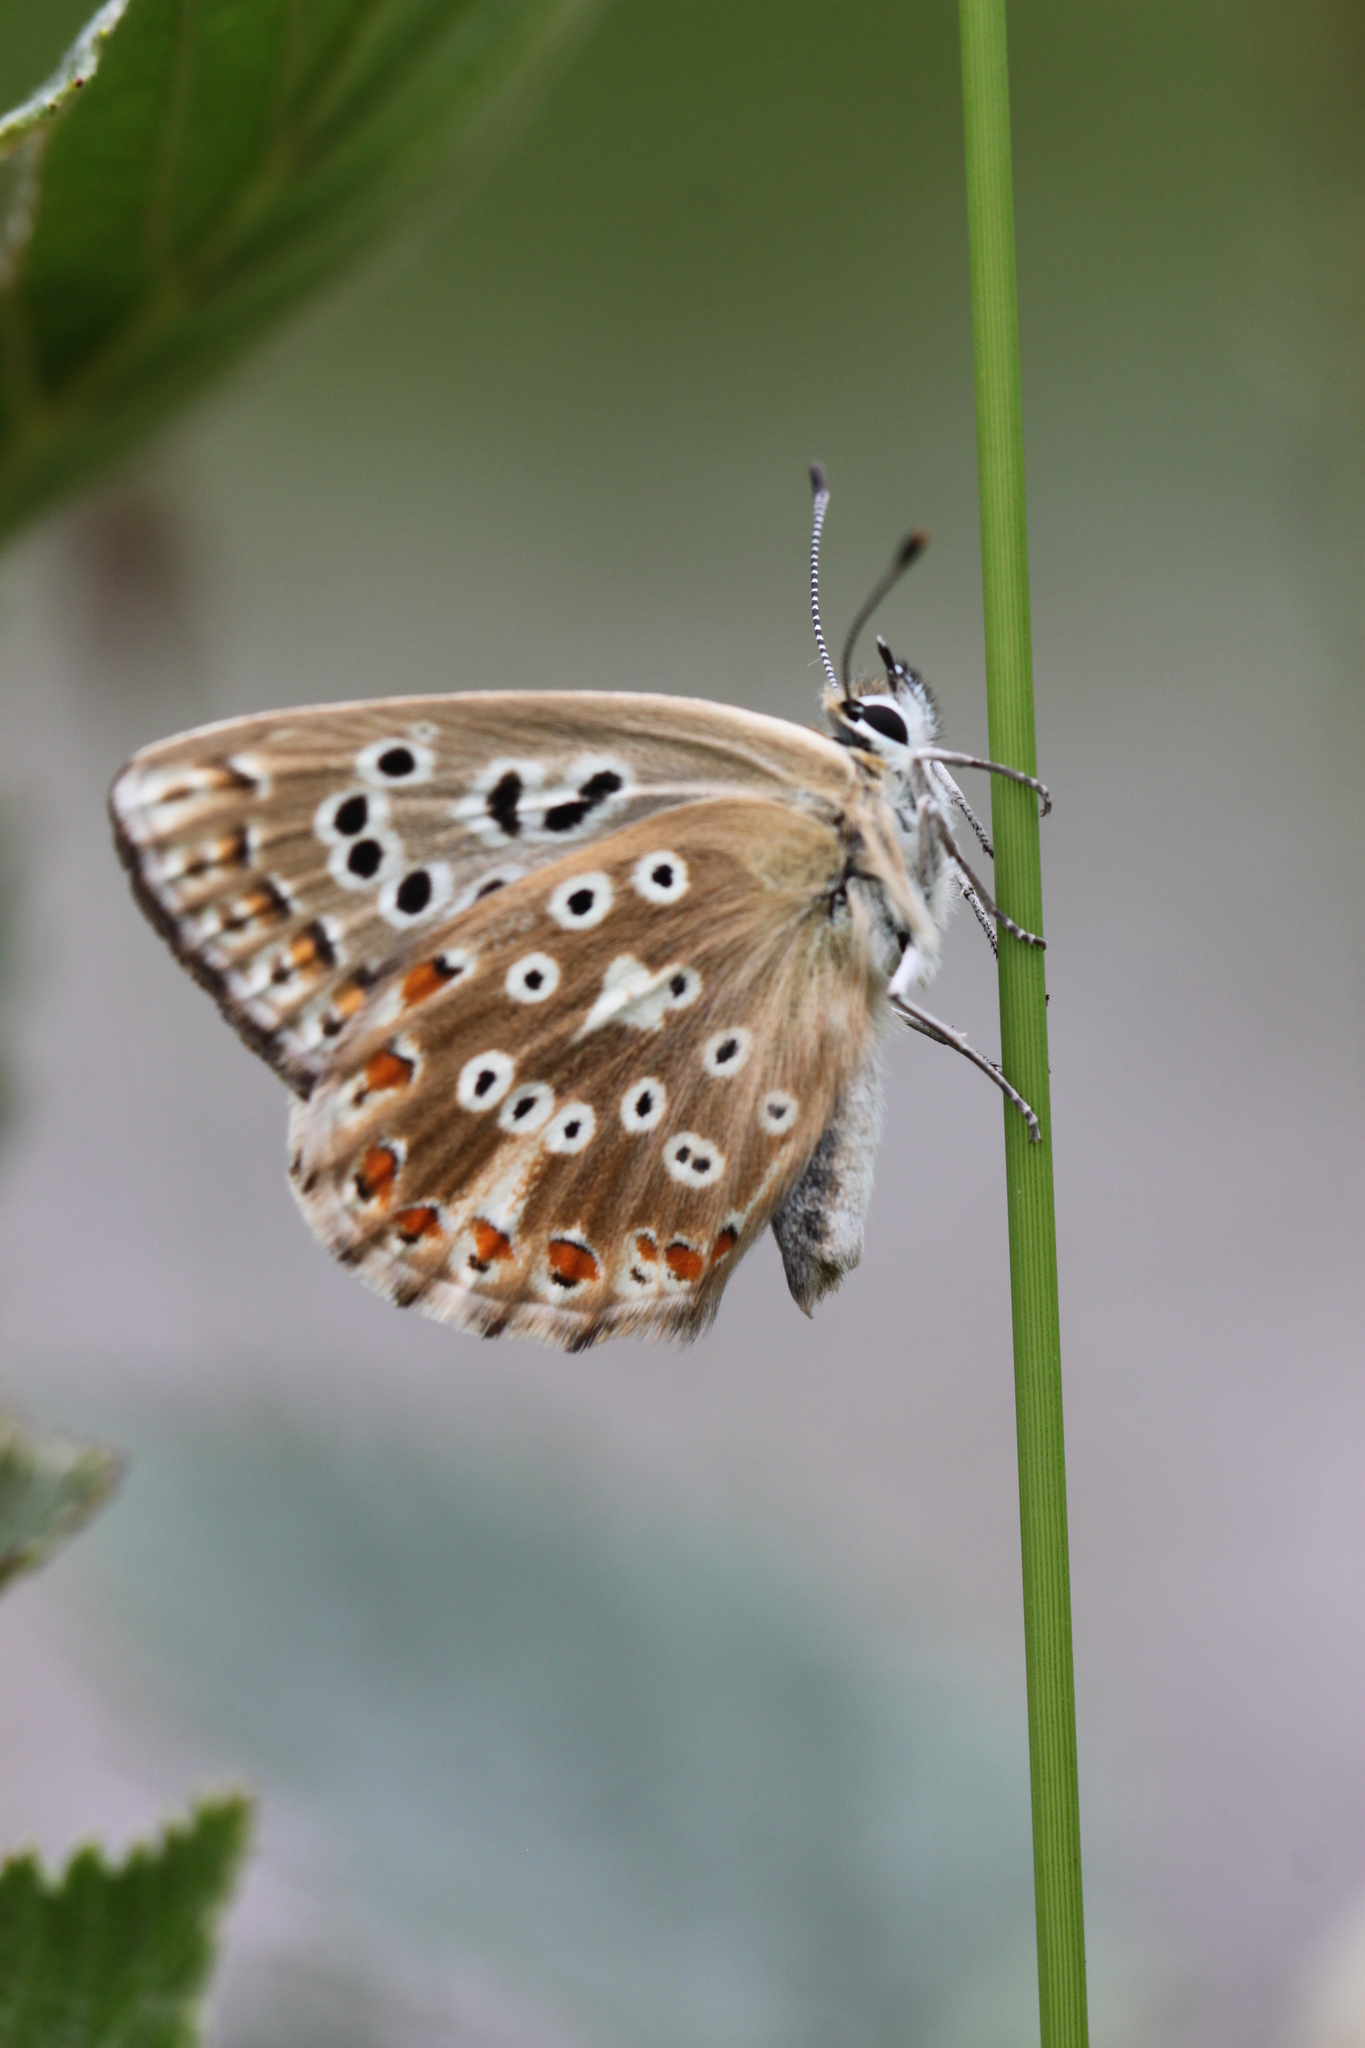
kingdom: Animalia
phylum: Arthropoda
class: Insecta
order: Lepidoptera
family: Lycaenidae
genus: Lysandra
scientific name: Lysandra coridon
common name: Chalkhill blue
